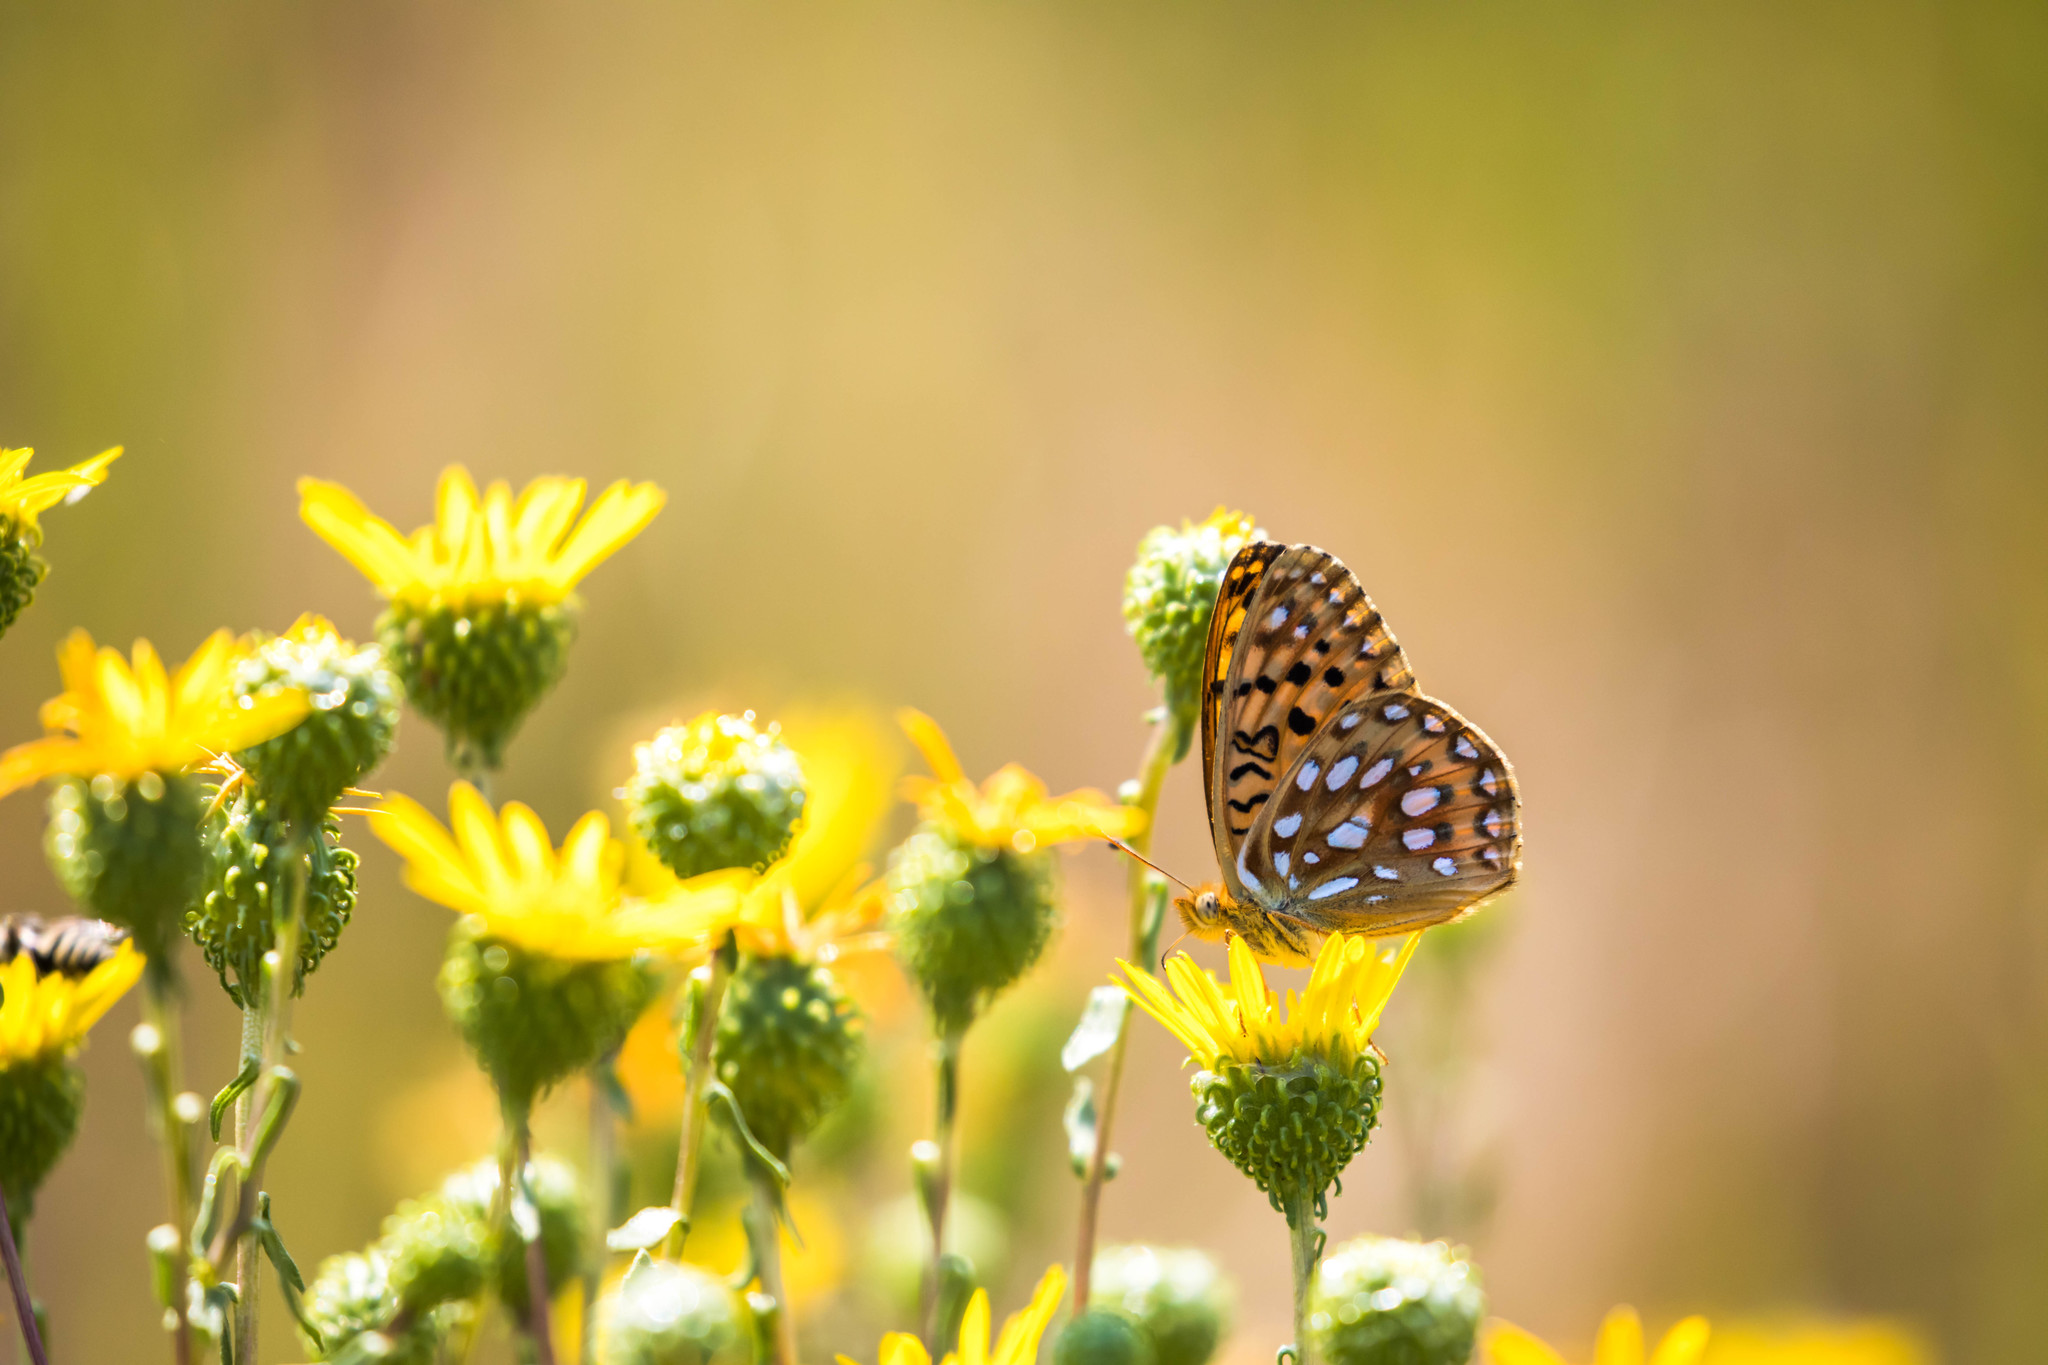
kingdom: Animalia
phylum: Arthropoda
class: Insecta
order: Lepidoptera
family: Nymphalidae
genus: Speyeria
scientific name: Speyeria mormonia
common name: Mormon fritillary
